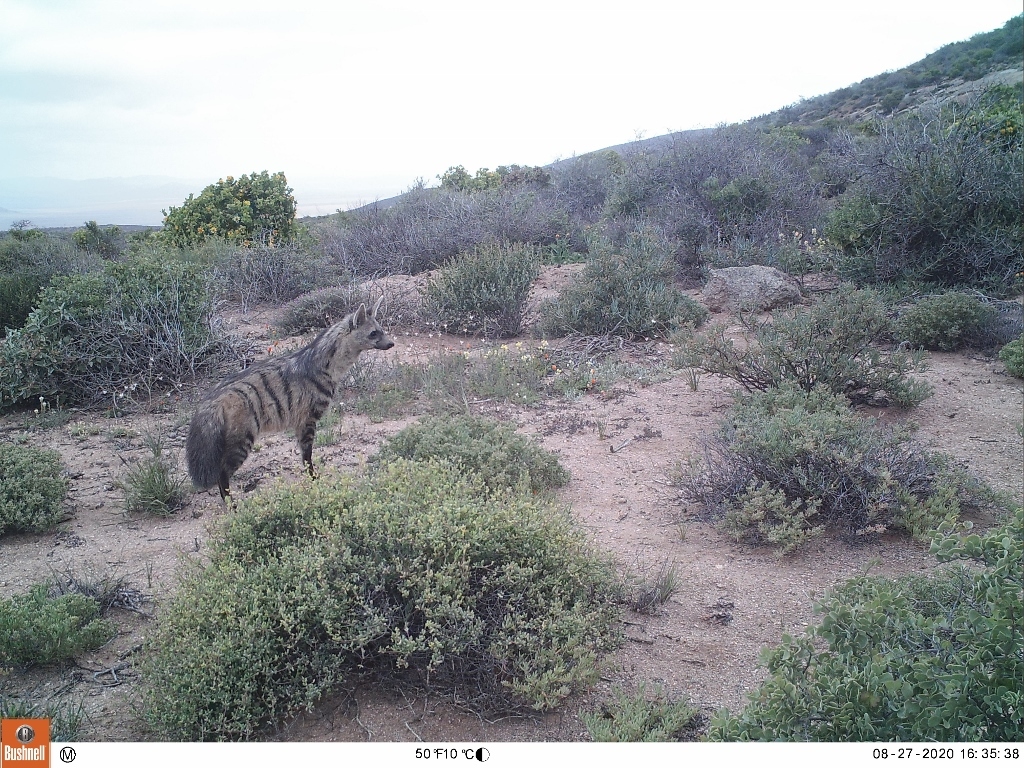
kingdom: Animalia
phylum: Chordata
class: Mammalia
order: Carnivora
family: Hyaenidae
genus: Proteles
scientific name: Proteles cristata
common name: Aardwolf
